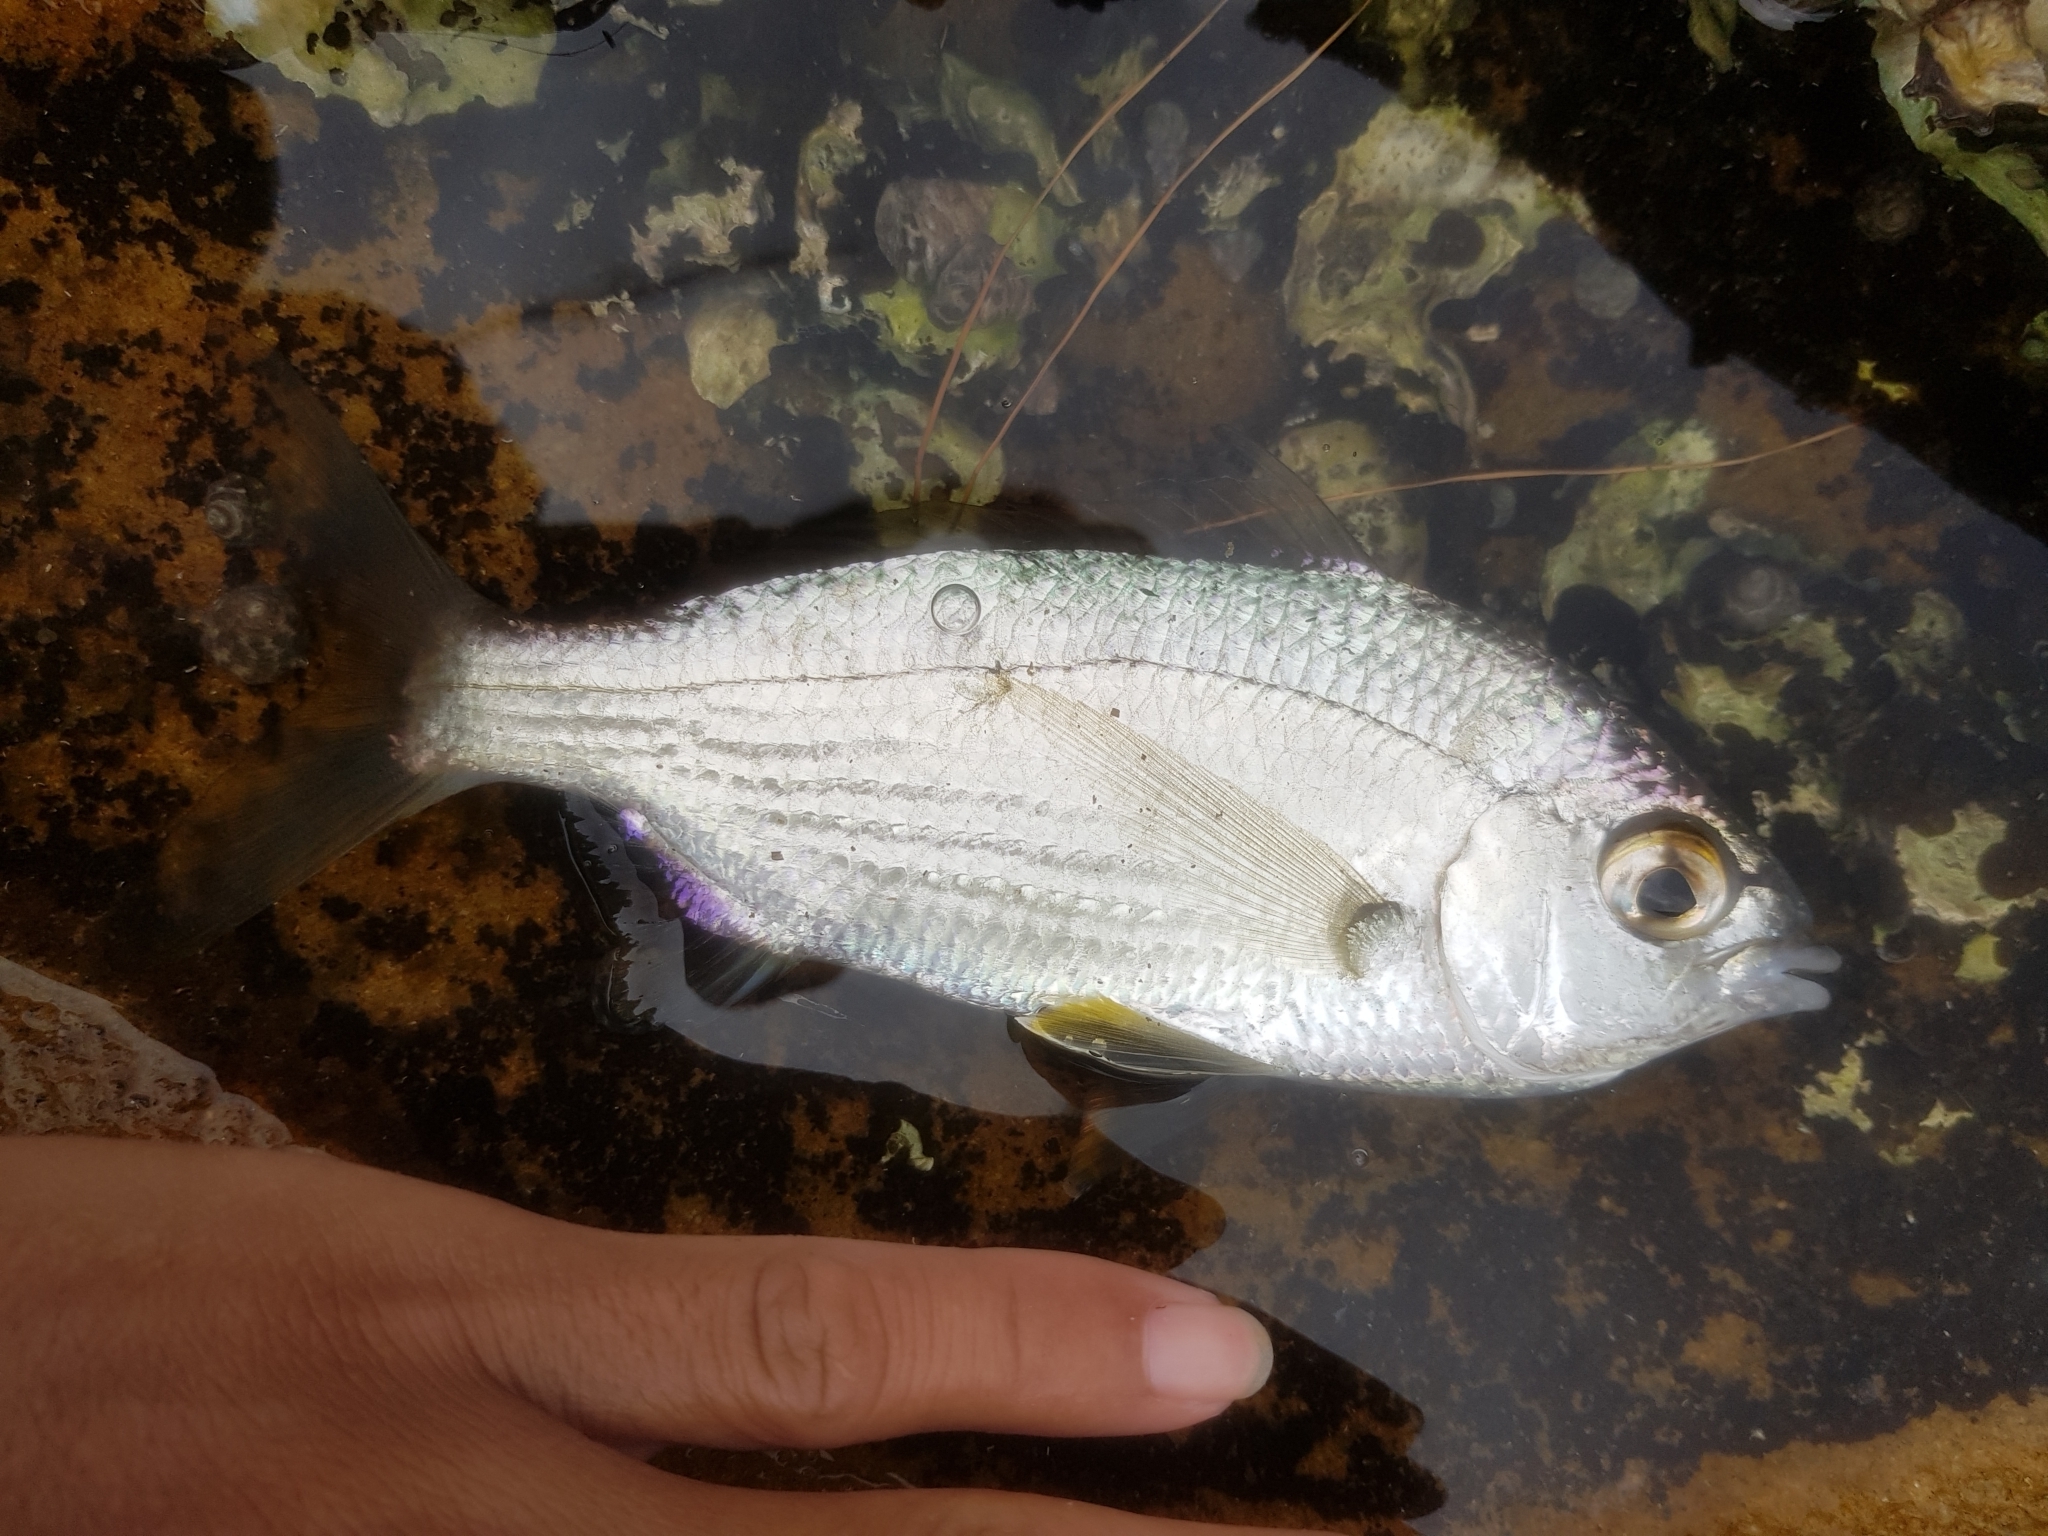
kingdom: Animalia
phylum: Chordata
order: Perciformes
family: Gerreidae
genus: Gerres
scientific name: Gerres subfasciatus
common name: Common silver belly
